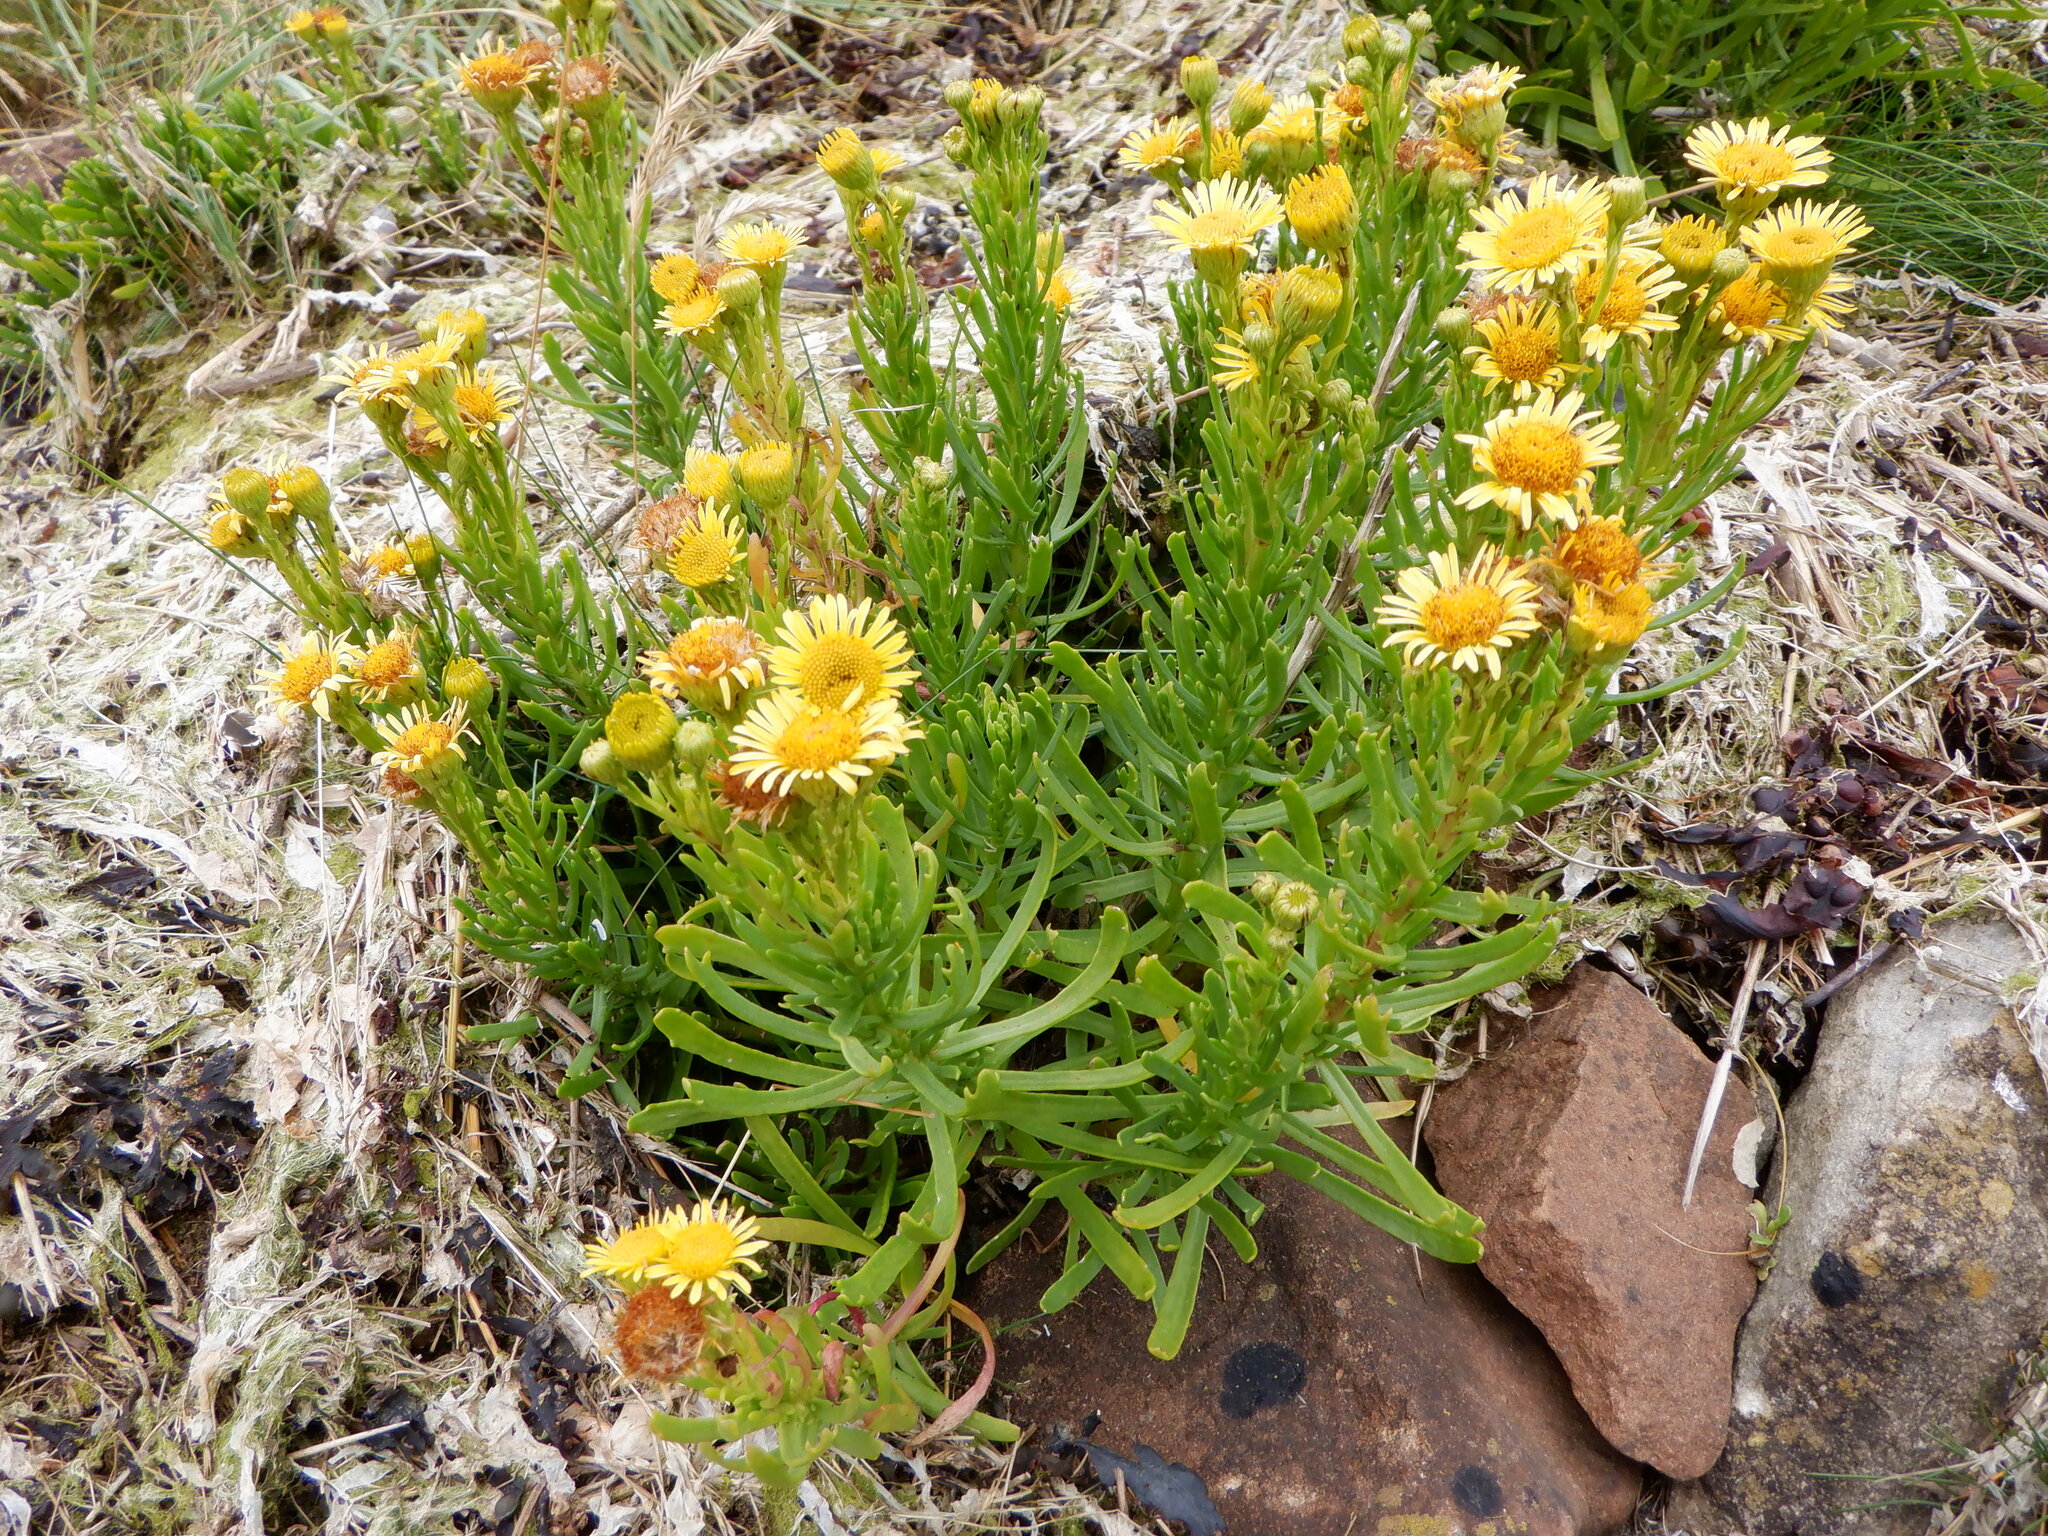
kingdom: Plantae
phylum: Tracheophyta
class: Magnoliopsida
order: Asterales
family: Asteraceae
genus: Limbarda
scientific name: Limbarda crithmoides
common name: Golden samphire
